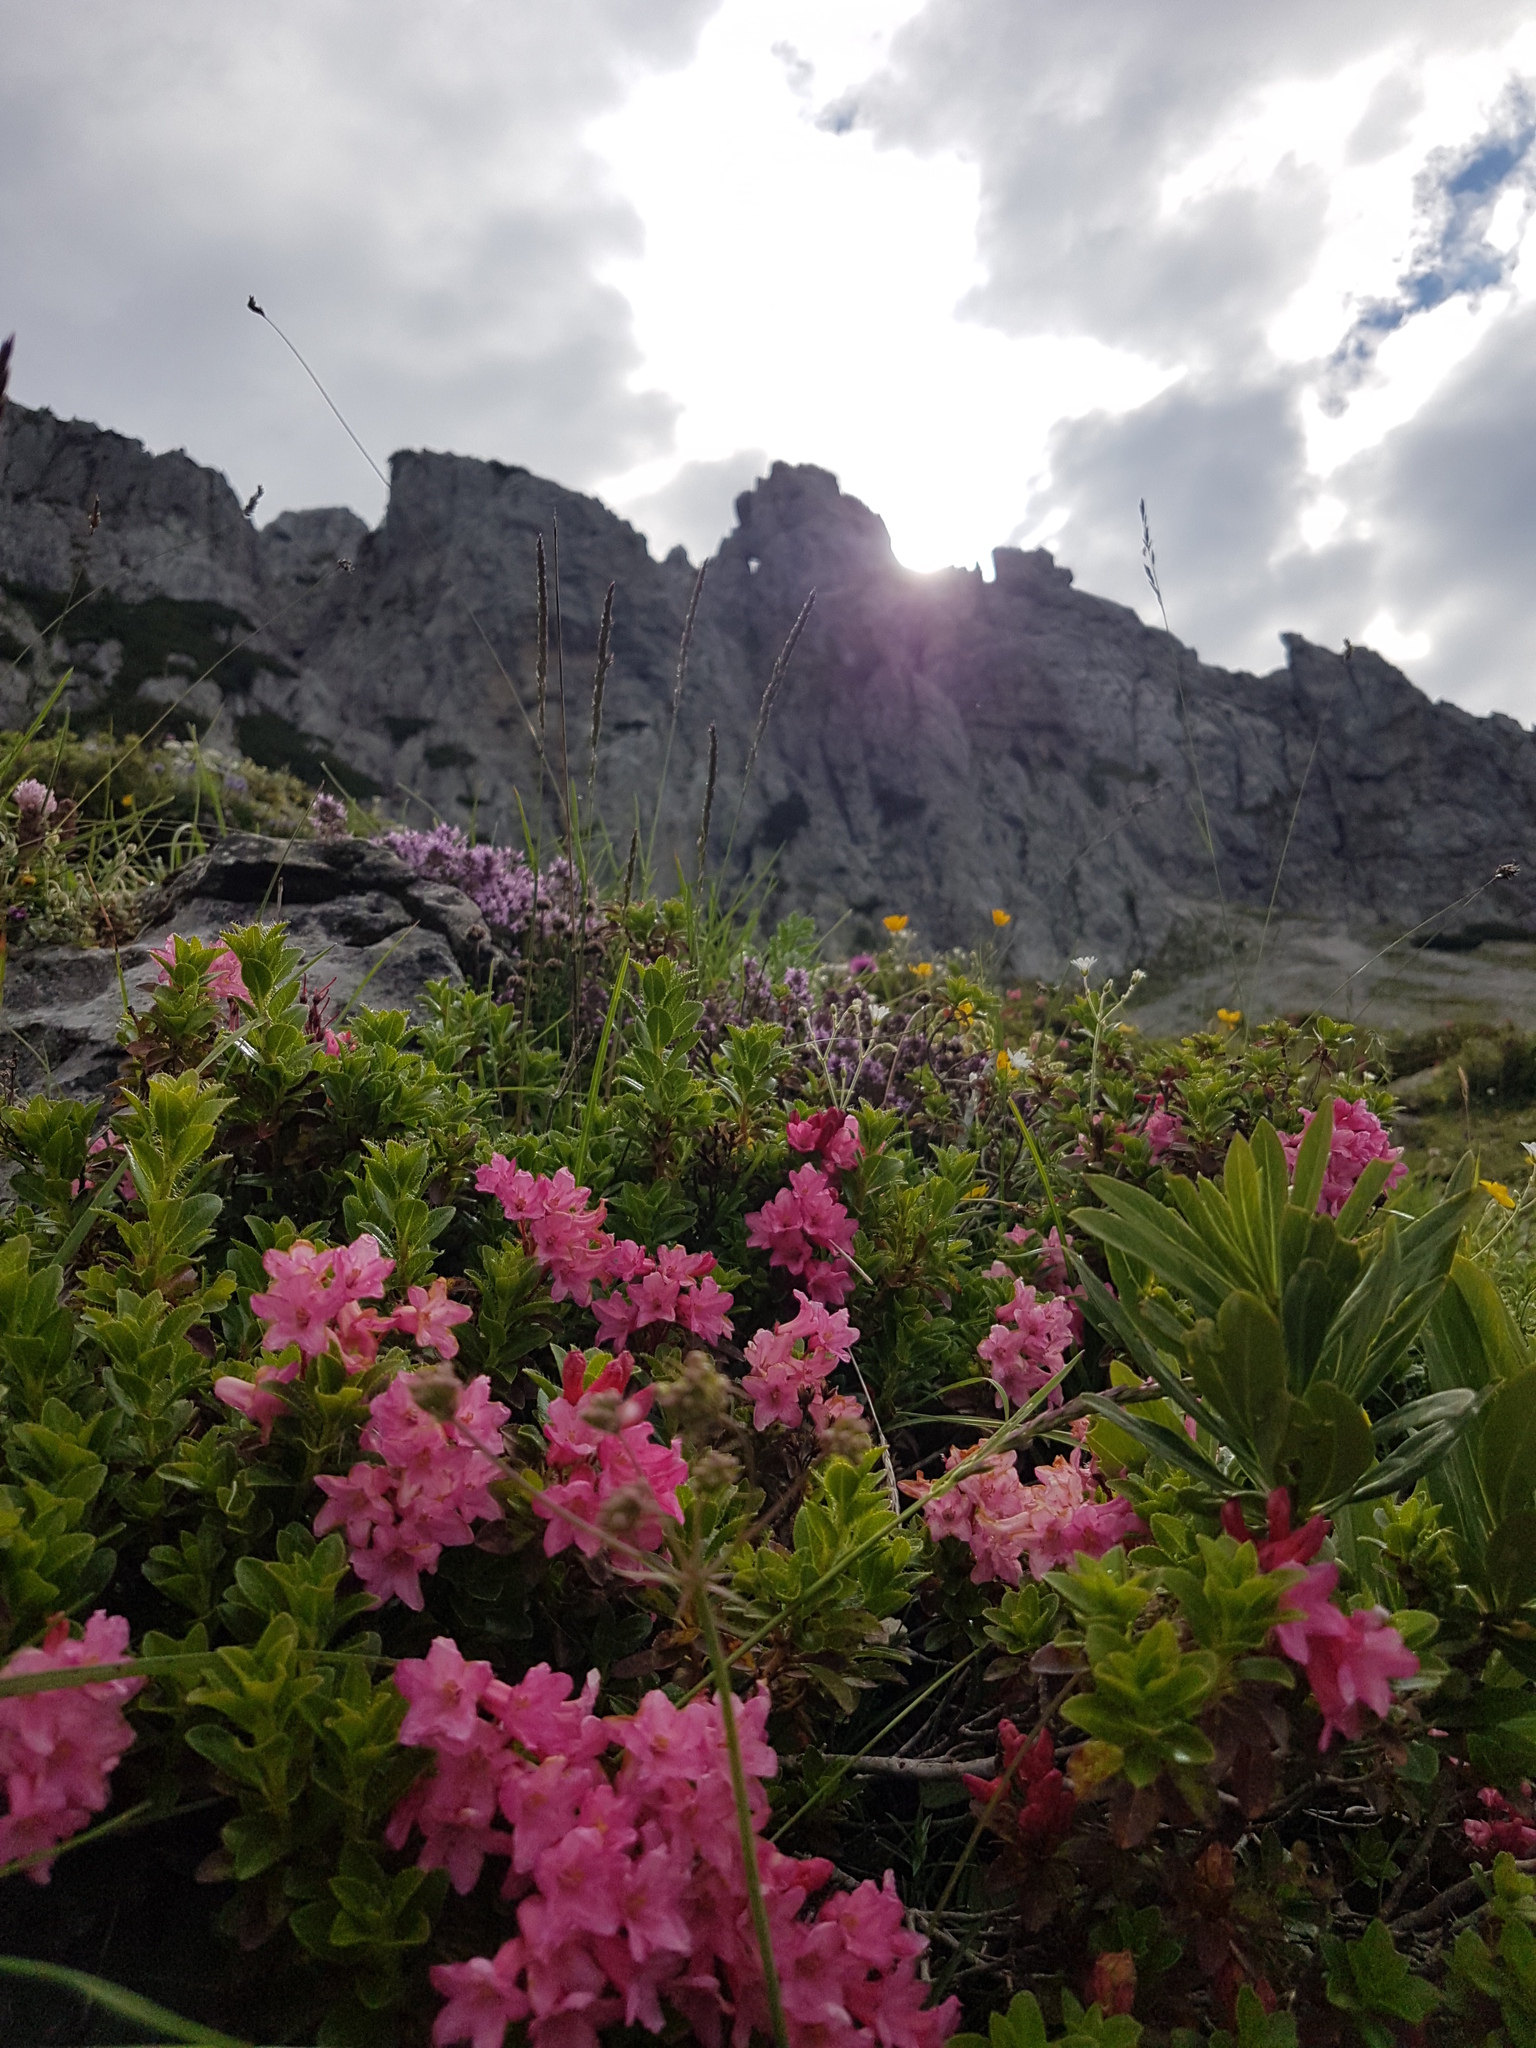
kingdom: Plantae
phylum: Tracheophyta
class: Magnoliopsida
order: Ericales
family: Ericaceae
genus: Rhododendron
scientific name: Rhododendron hirsutum
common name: Hairy alpenrose
